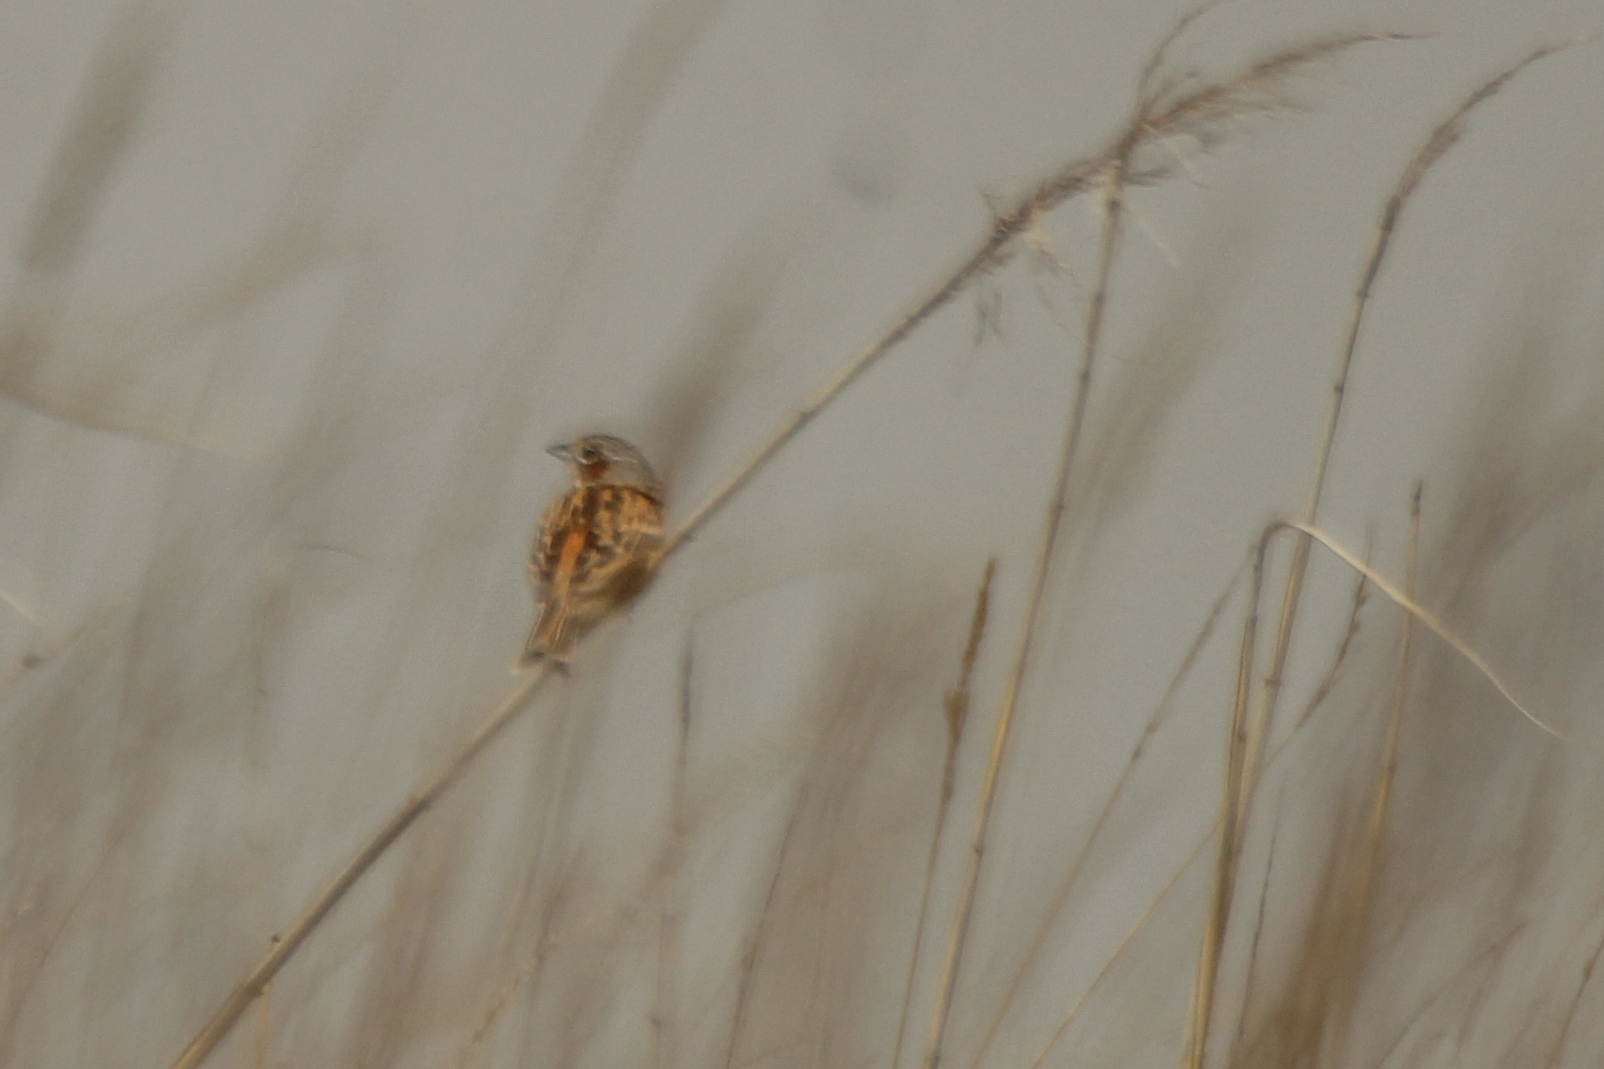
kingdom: Animalia
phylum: Chordata
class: Aves
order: Passeriformes
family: Emberizidae
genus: Emberiza
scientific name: Emberiza fucata
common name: Chestnut-eared bunting
